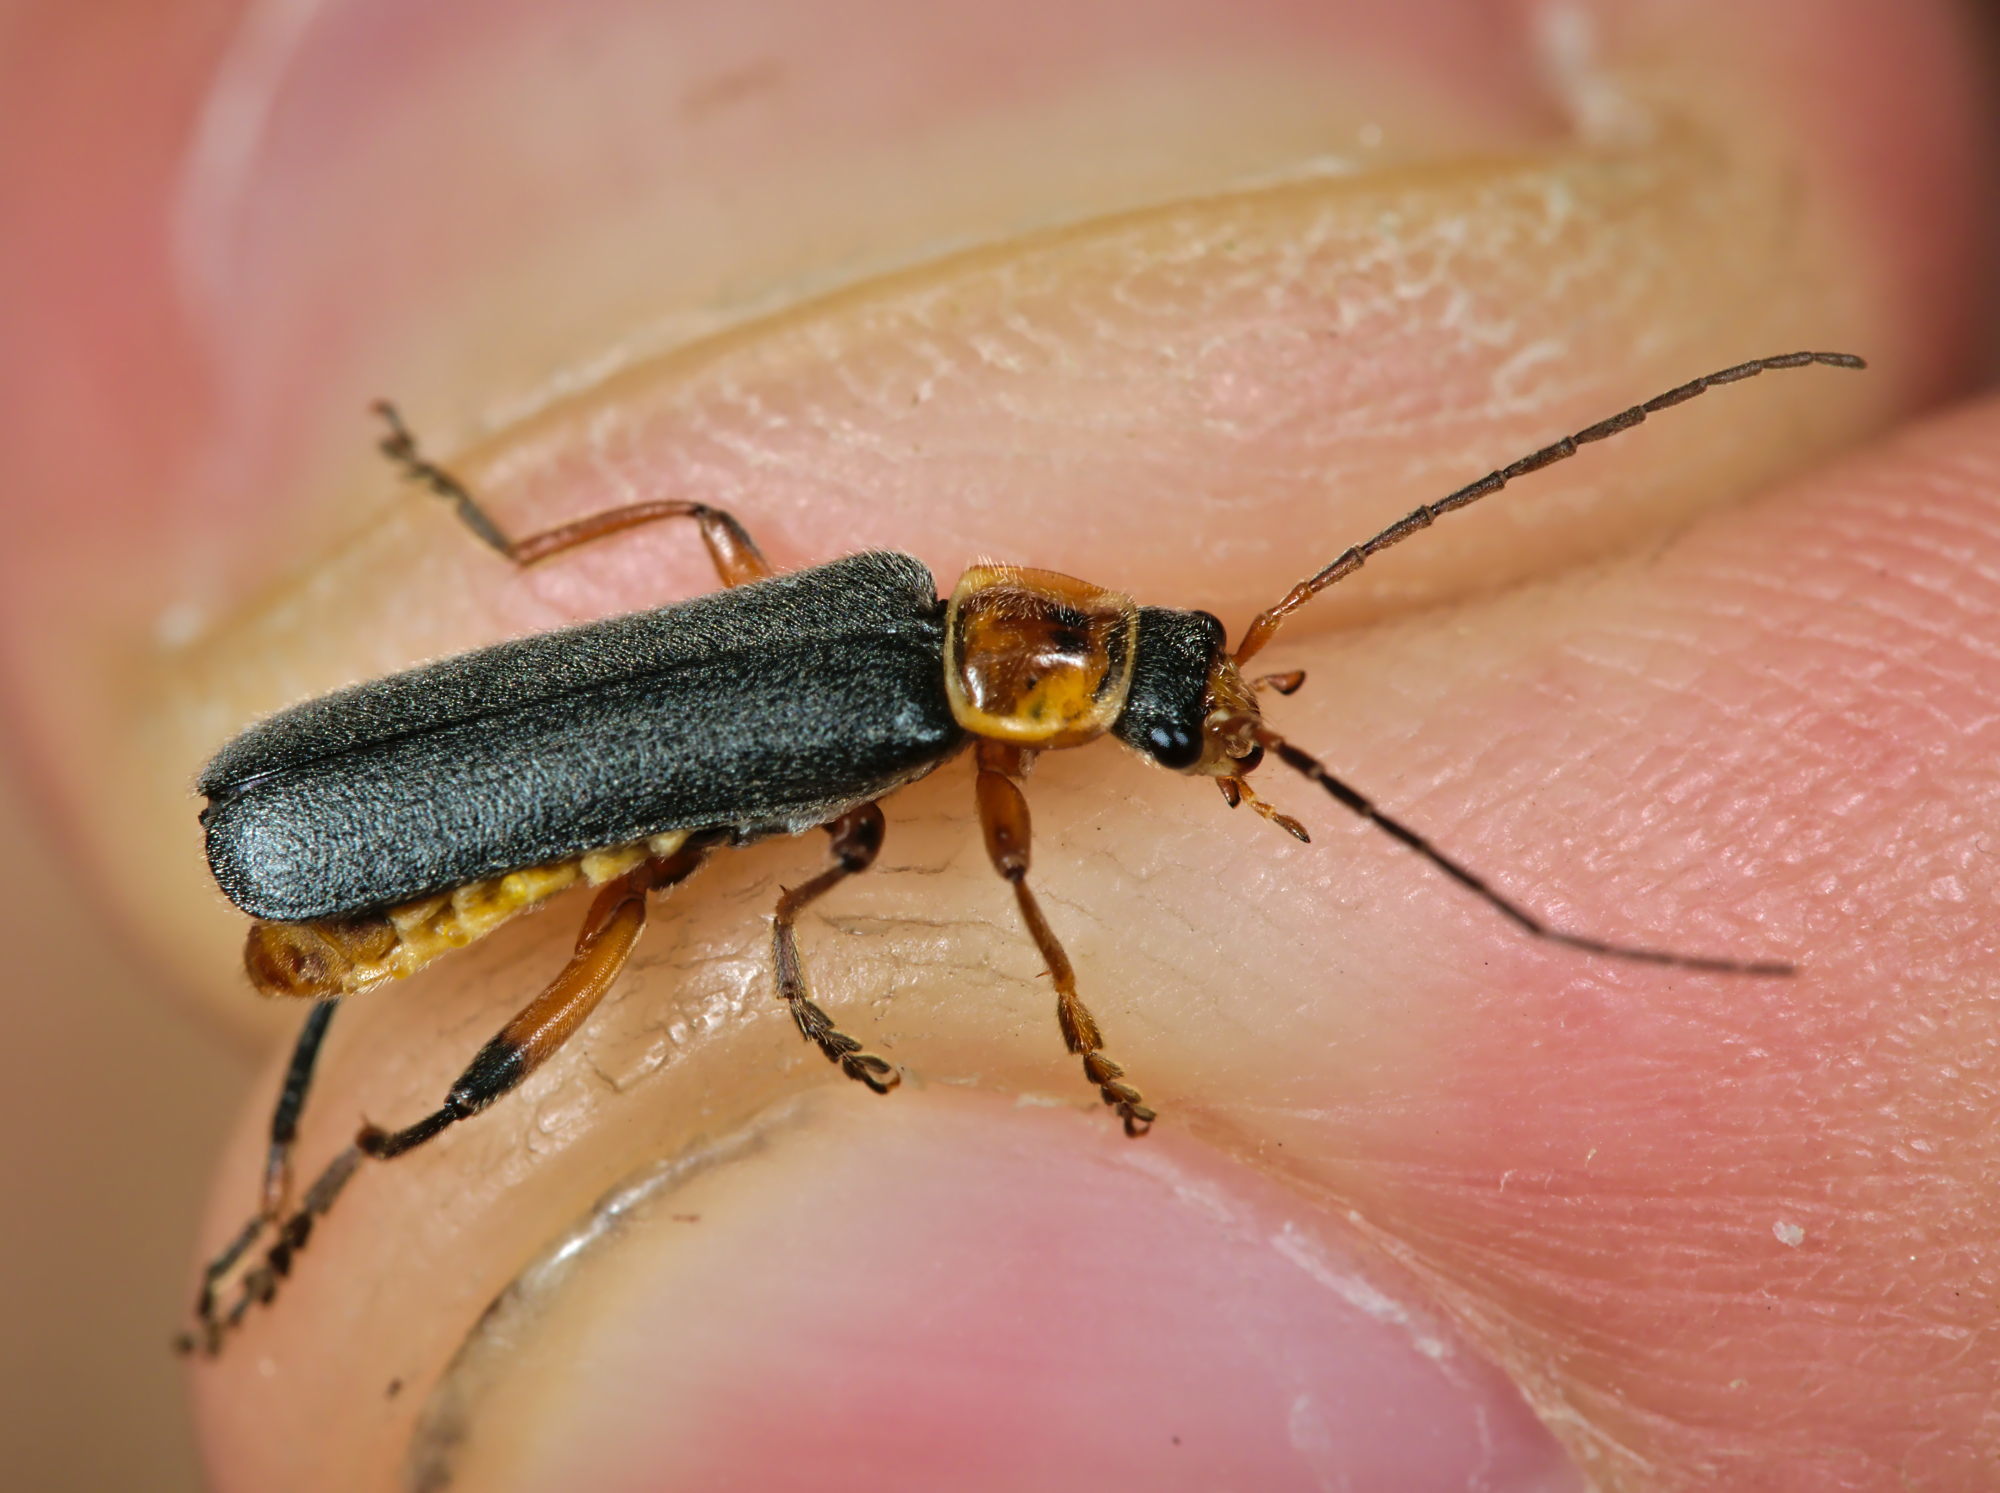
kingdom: Animalia
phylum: Arthropoda
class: Insecta
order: Coleoptera
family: Cantharidae
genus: Cantharis
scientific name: Cantharis nigricans
